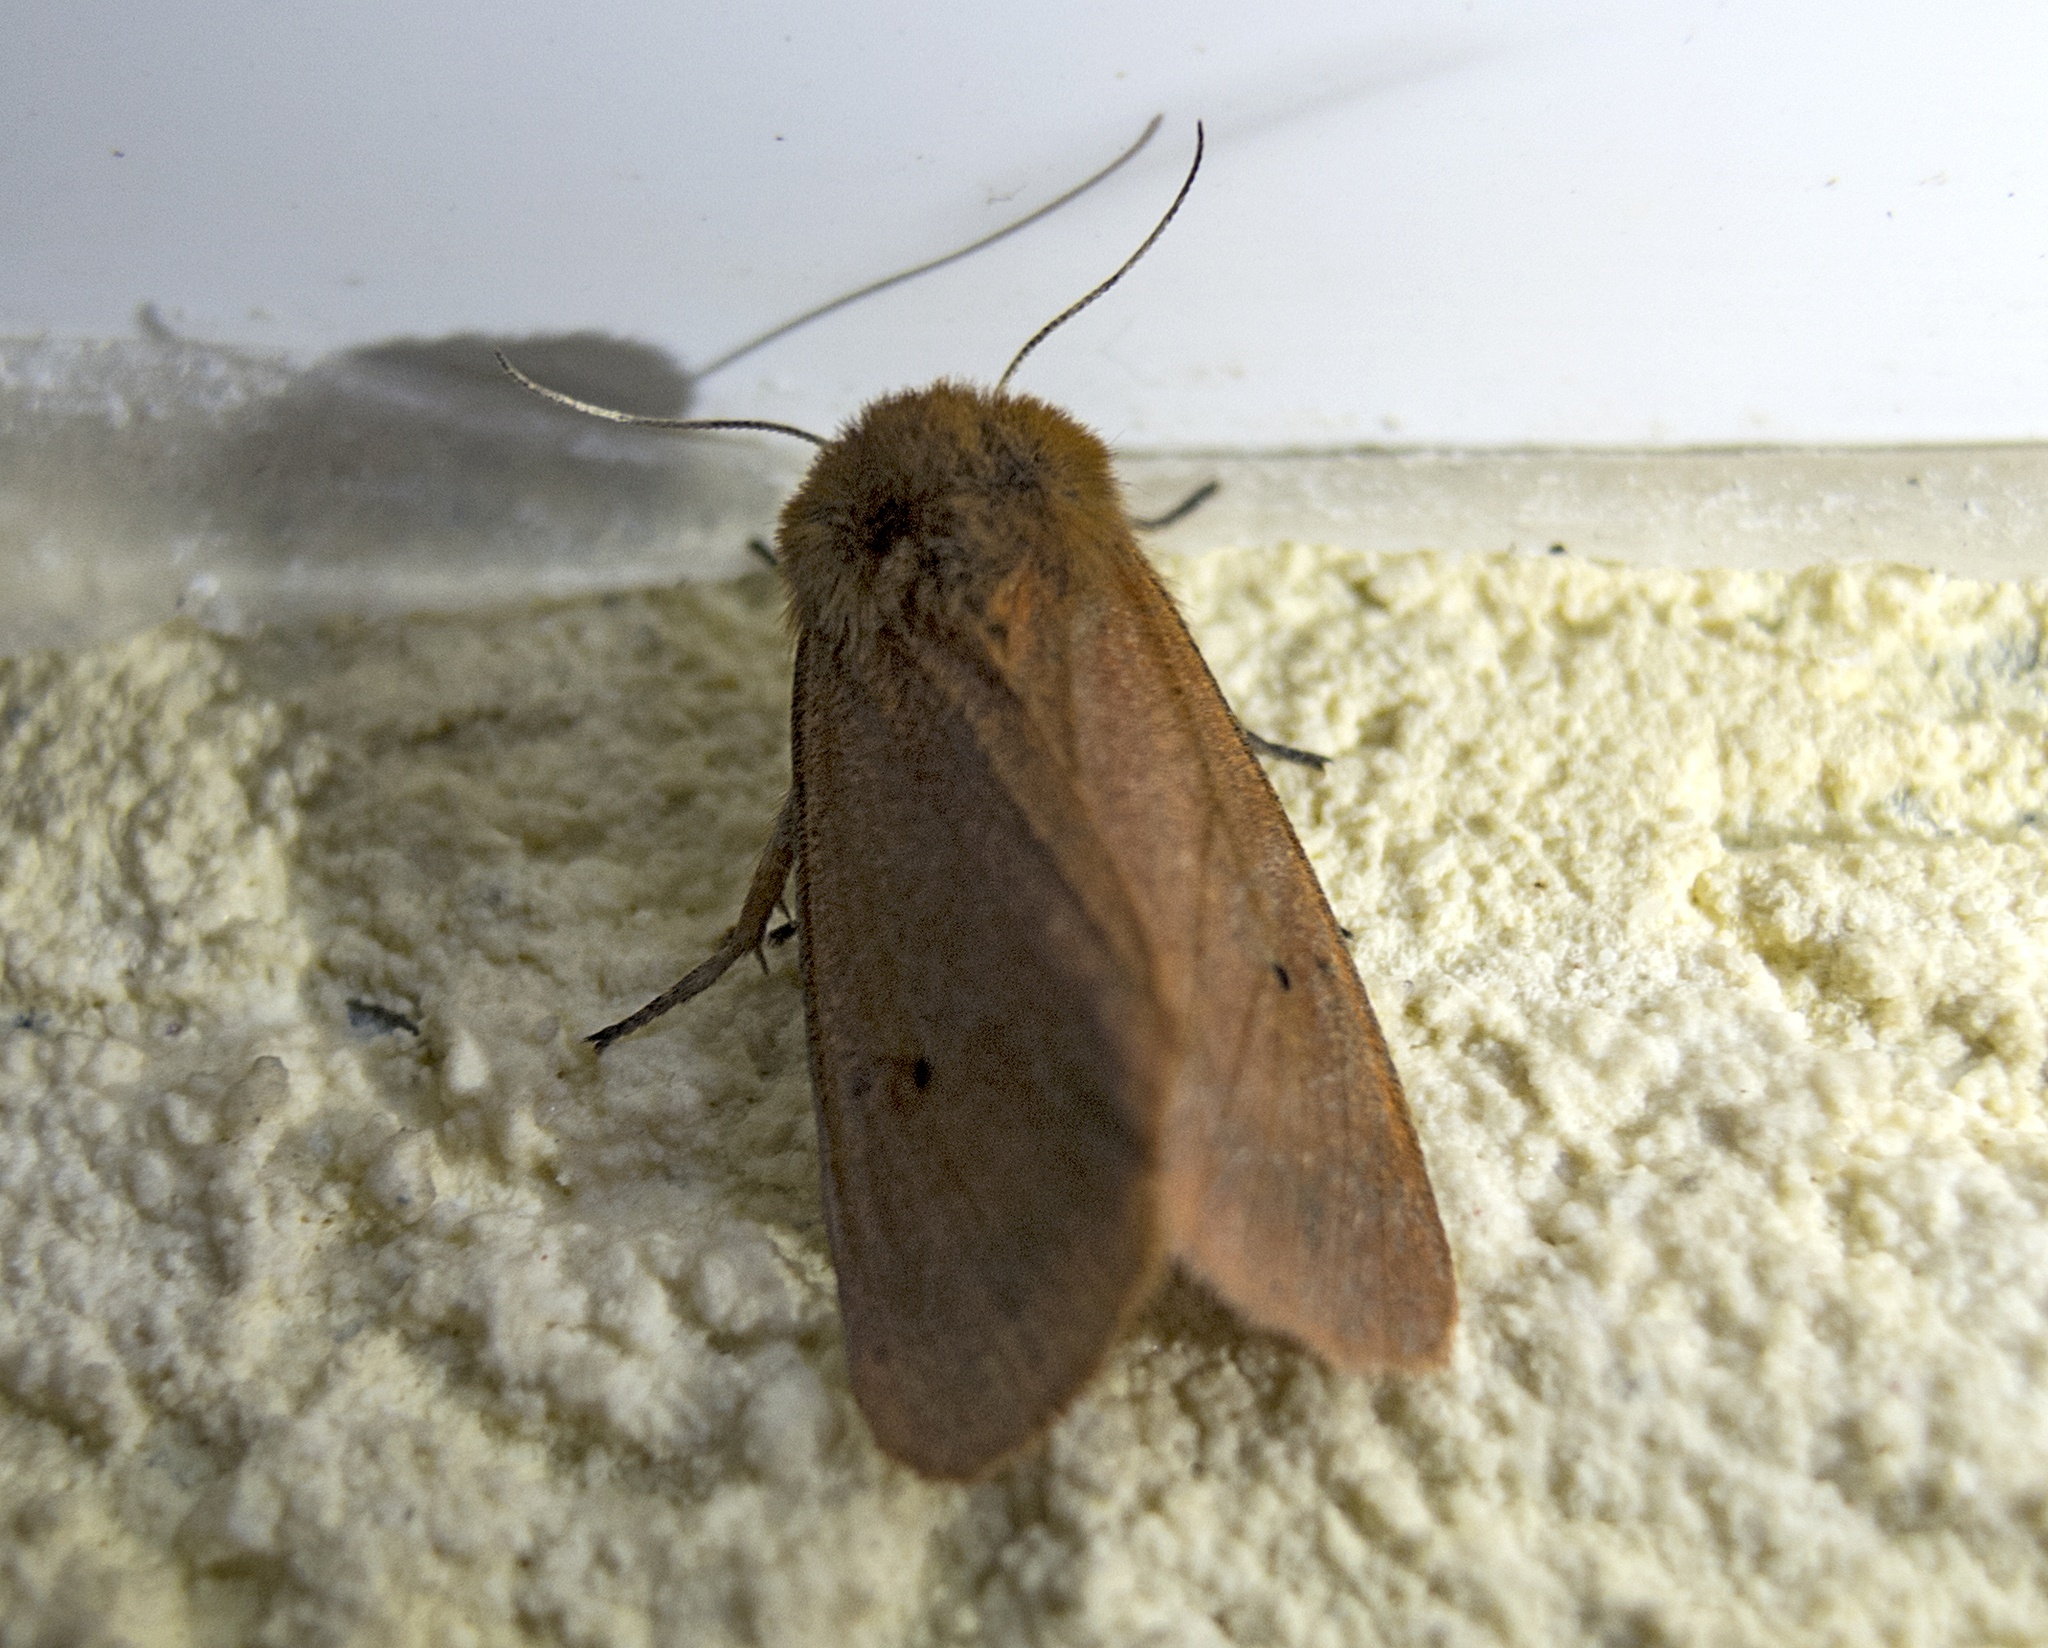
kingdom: Animalia
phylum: Arthropoda
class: Insecta
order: Lepidoptera
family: Erebidae
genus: Phragmatobia
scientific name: Phragmatobia fuliginosa
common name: Ruby tiger
